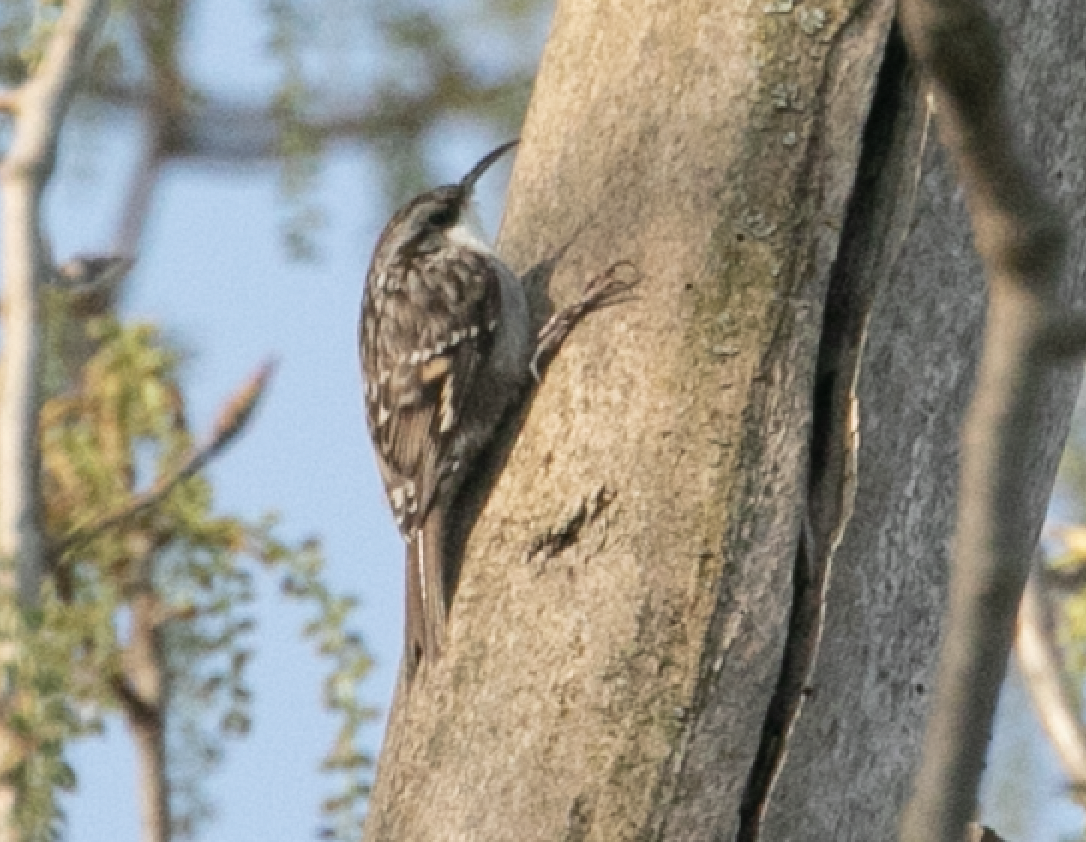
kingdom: Animalia
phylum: Chordata
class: Aves
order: Passeriformes
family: Certhiidae
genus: Certhia
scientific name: Certhia brachydactyla
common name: Short-toed treecreeper
